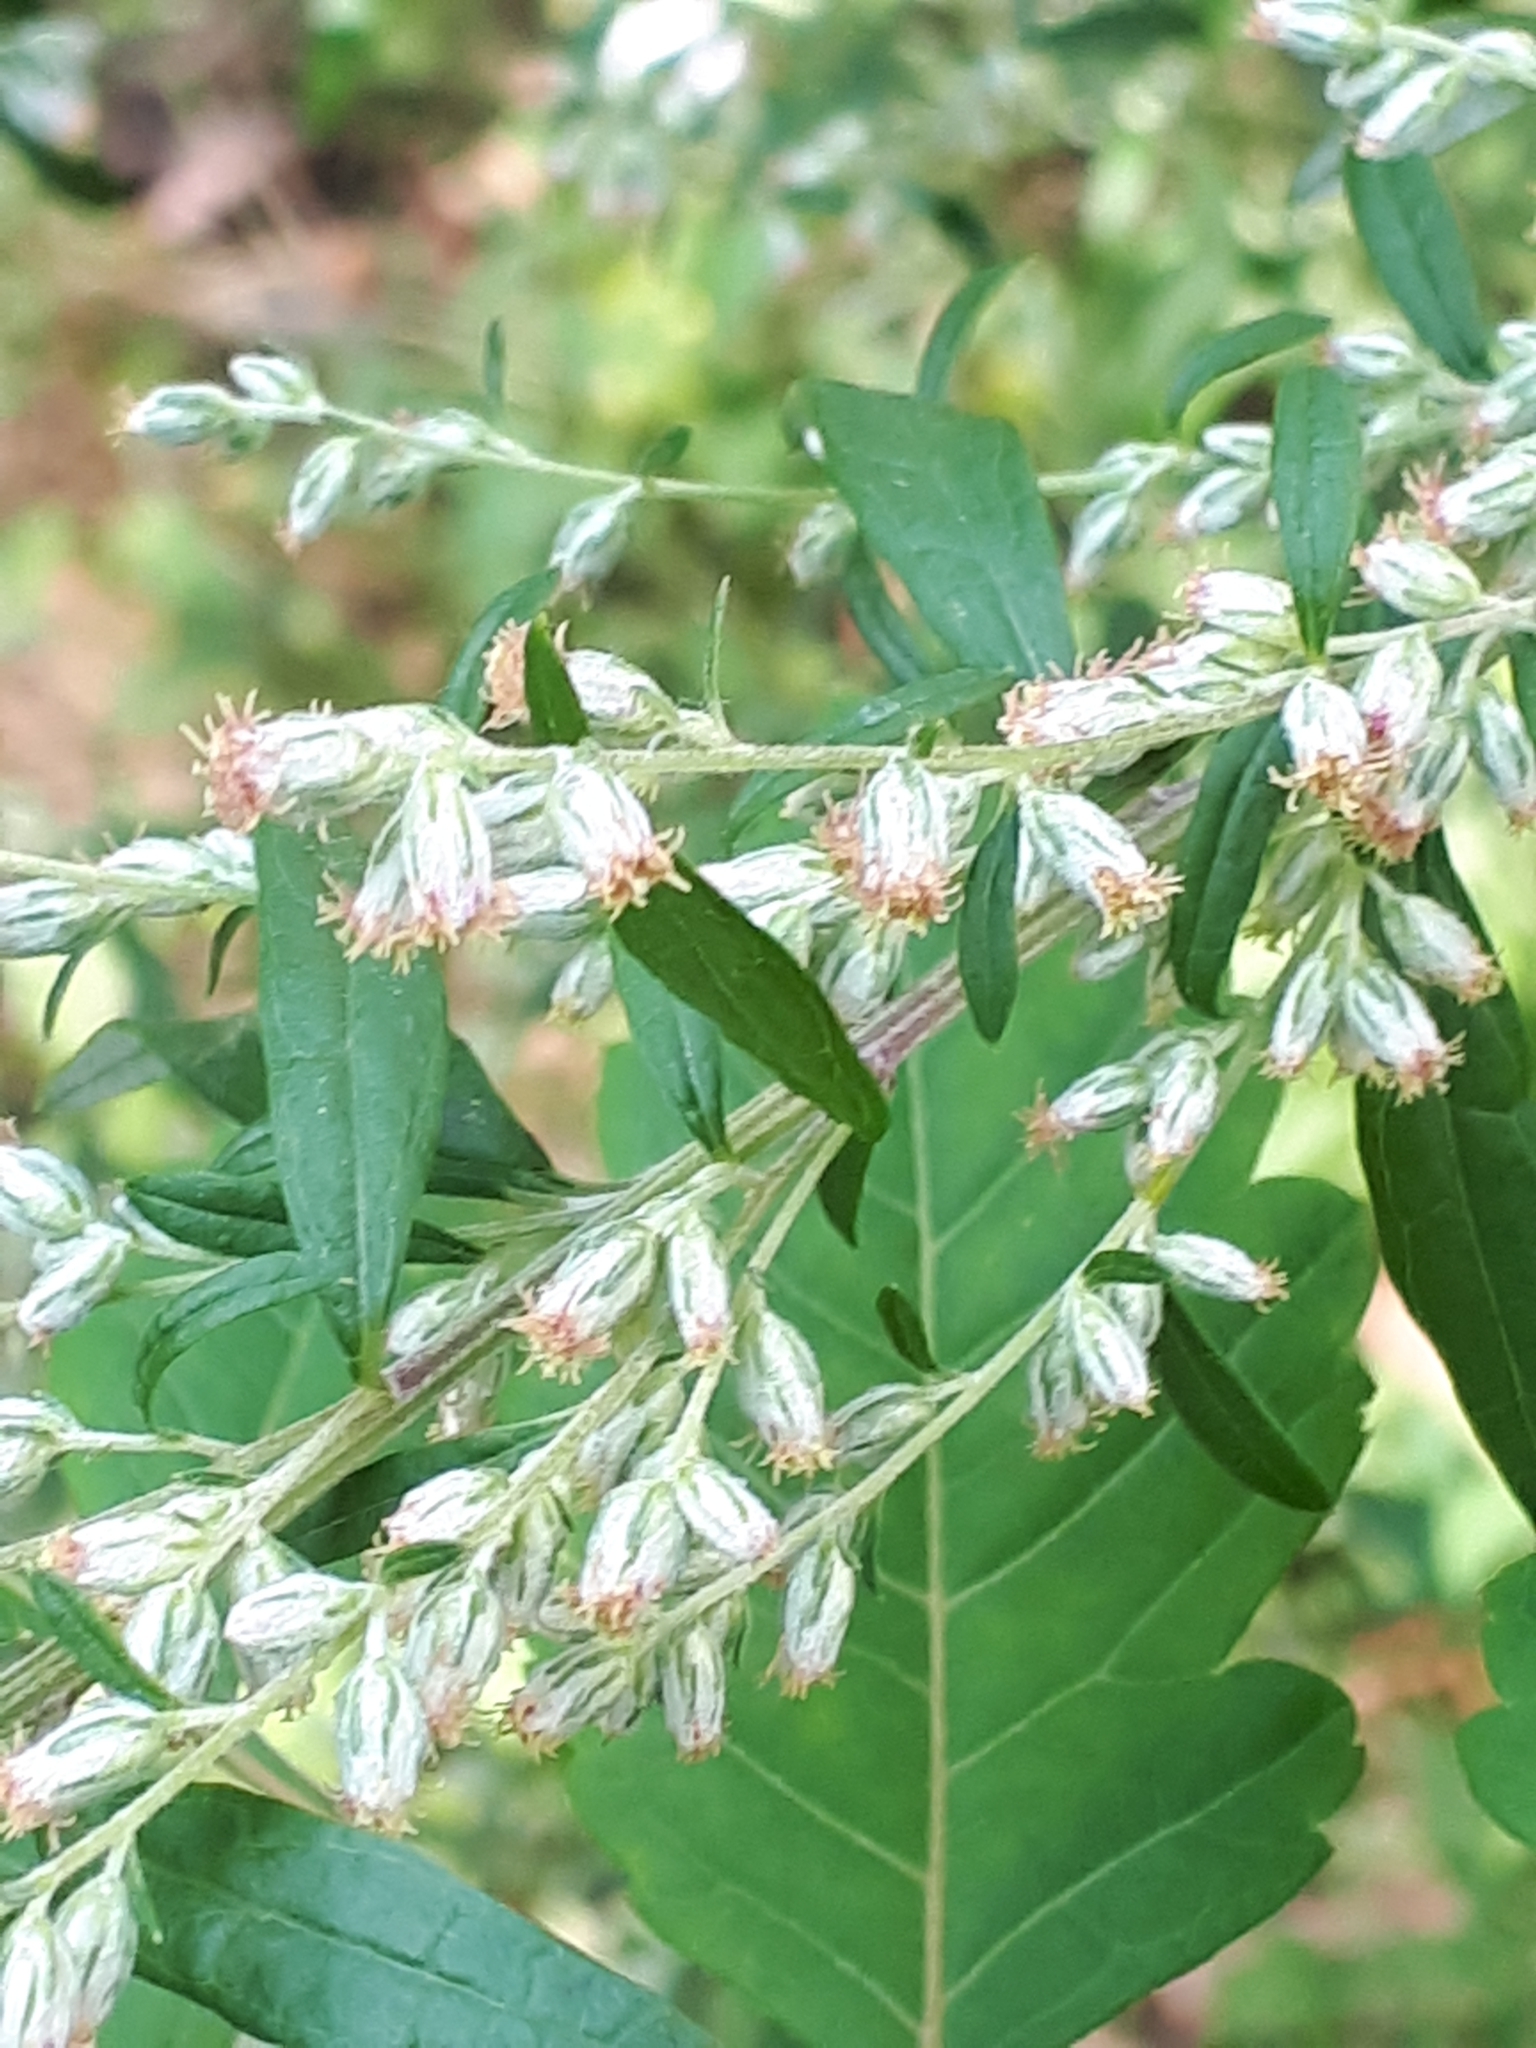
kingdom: Plantae
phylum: Tracheophyta
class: Magnoliopsida
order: Asterales
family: Asteraceae
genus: Artemisia
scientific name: Artemisia vulgaris
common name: Mugwort
